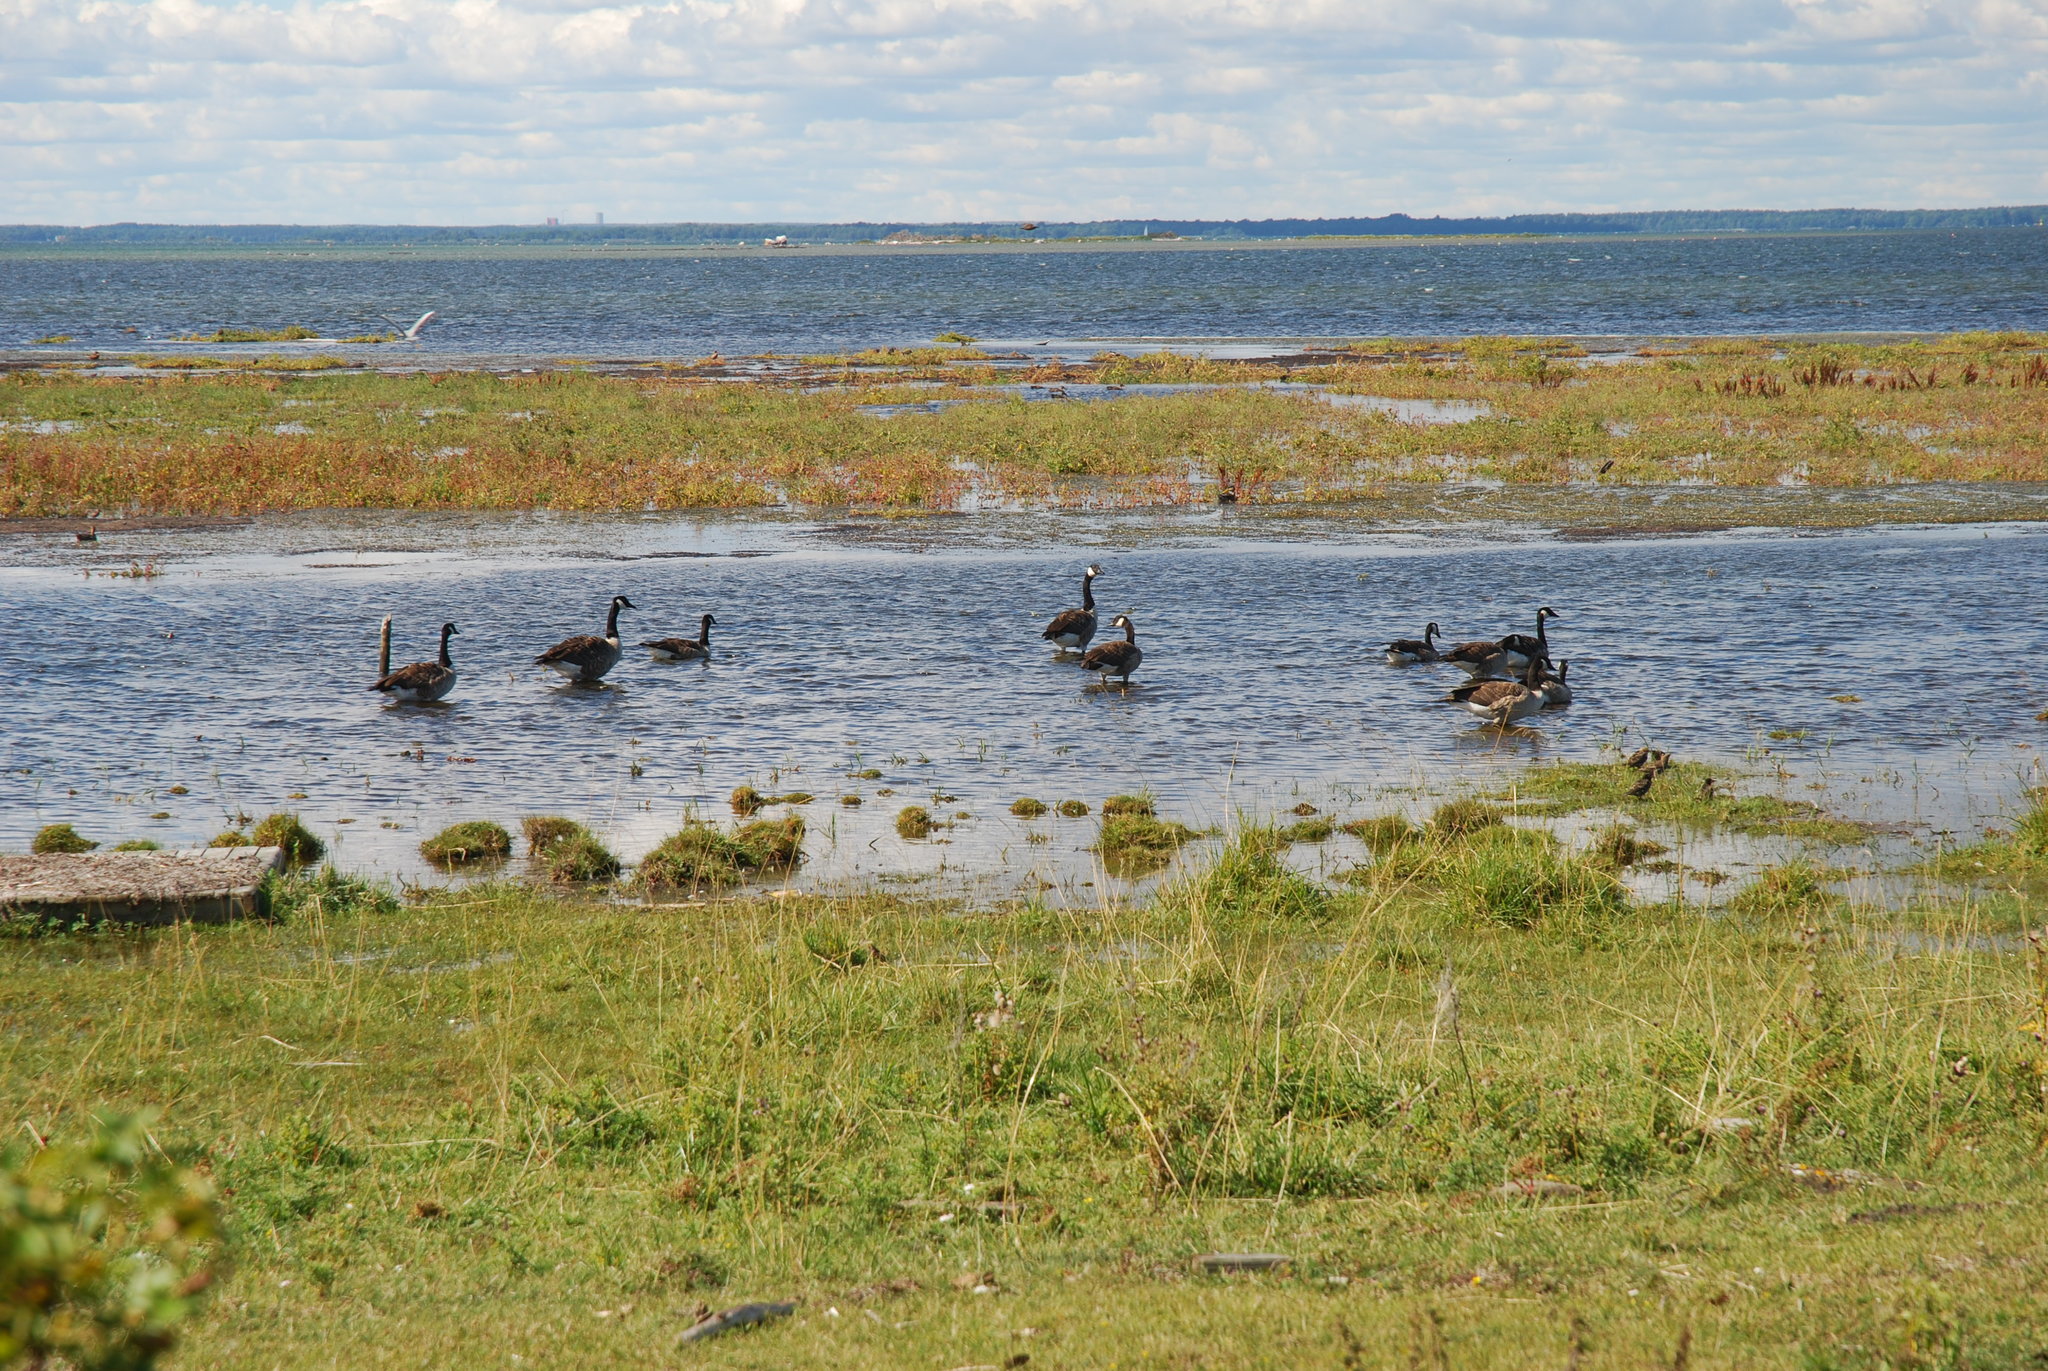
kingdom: Animalia
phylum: Chordata
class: Aves
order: Anseriformes
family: Anatidae
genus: Branta
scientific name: Branta canadensis
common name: Canada goose
